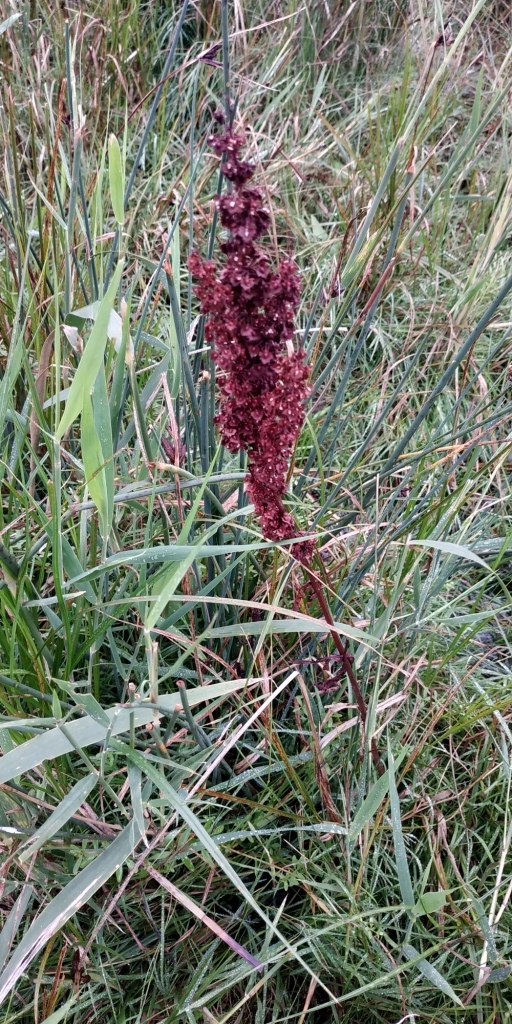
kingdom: Plantae
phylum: Tracheophyta
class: Magnoliopsida
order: Caryophyllales
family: Polygonaceae
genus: Rumex
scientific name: Rumex stenophyllus
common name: Narrowleaf dock
